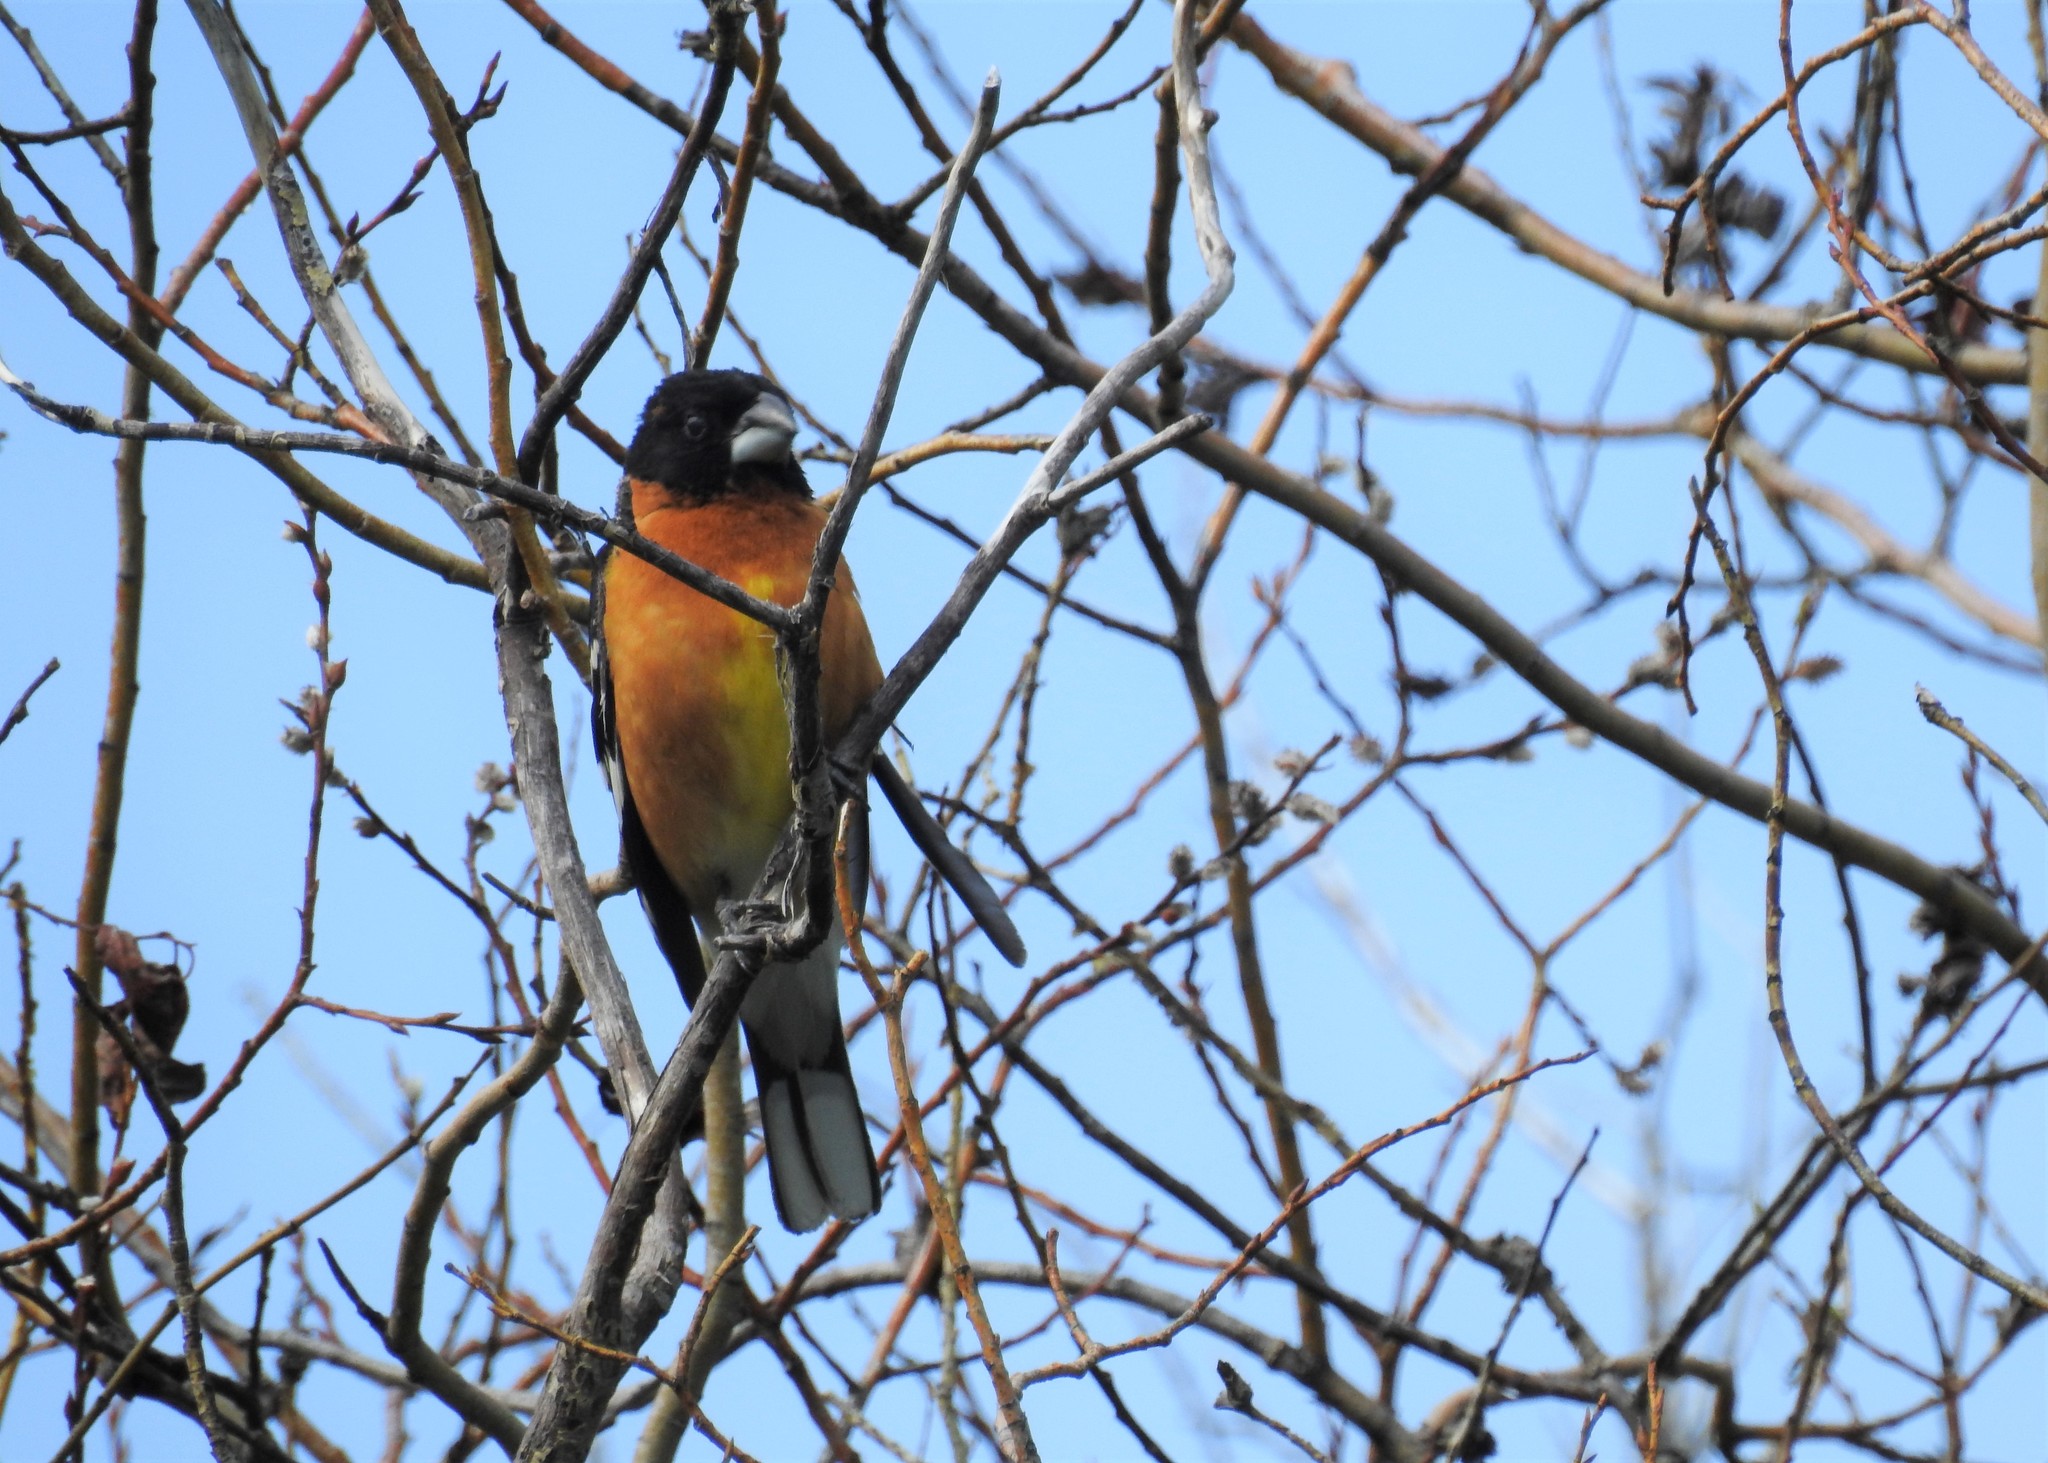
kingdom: Animalia
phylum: Chordata
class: Aves
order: Passeriformes
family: Cardinalidae
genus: Pheucticus
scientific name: Pheucticus melanocephalus
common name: Black-headed grosbeak
